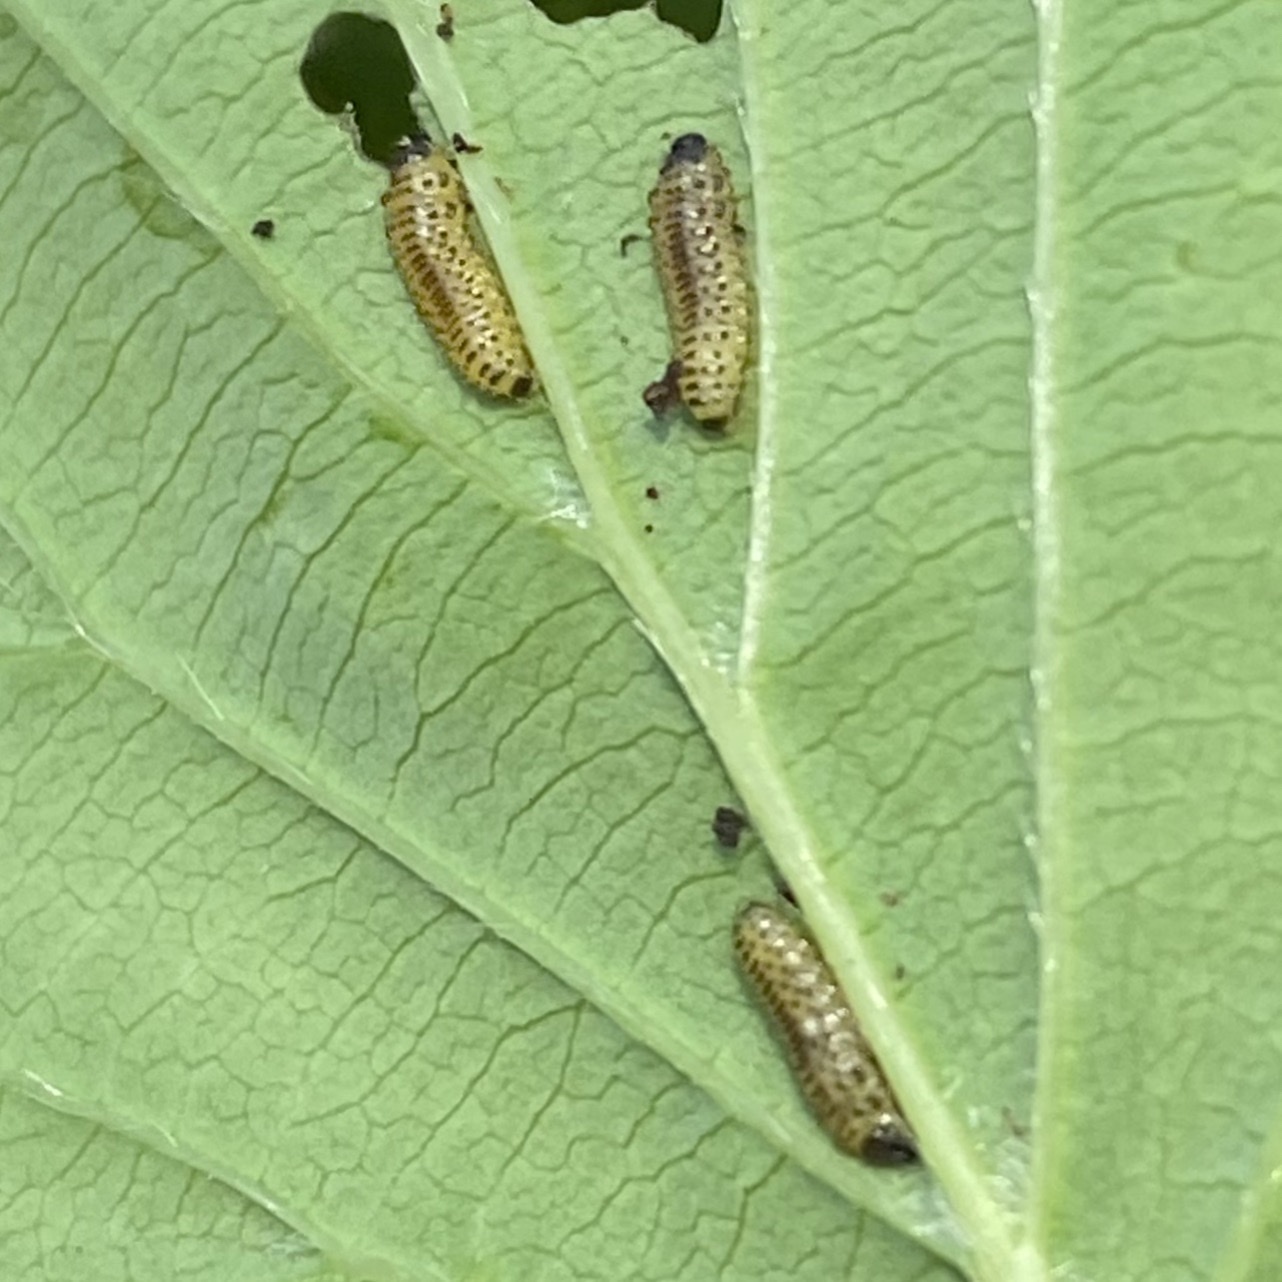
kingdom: Animalia
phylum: Arthropoda
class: Insecta
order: Coleoptera
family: Chrysomelidae
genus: Pyrrhalta
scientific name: Pyrrhalta viburni
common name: Guelder-rose leaf beetle
